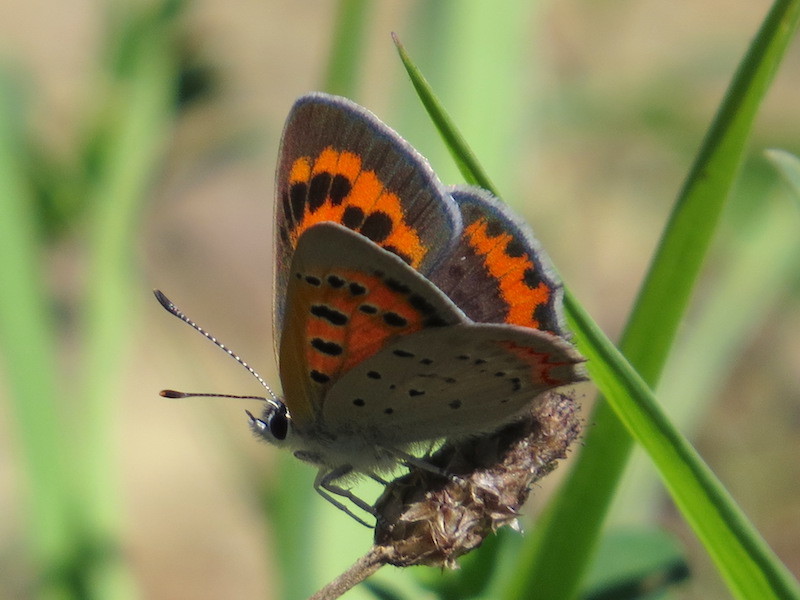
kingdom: Animalia
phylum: Arthropoda
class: Insecta
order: Lepidoptera
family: Lycaenidae
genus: Lycaena
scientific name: Lycaena hypophlaeas
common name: American copper
